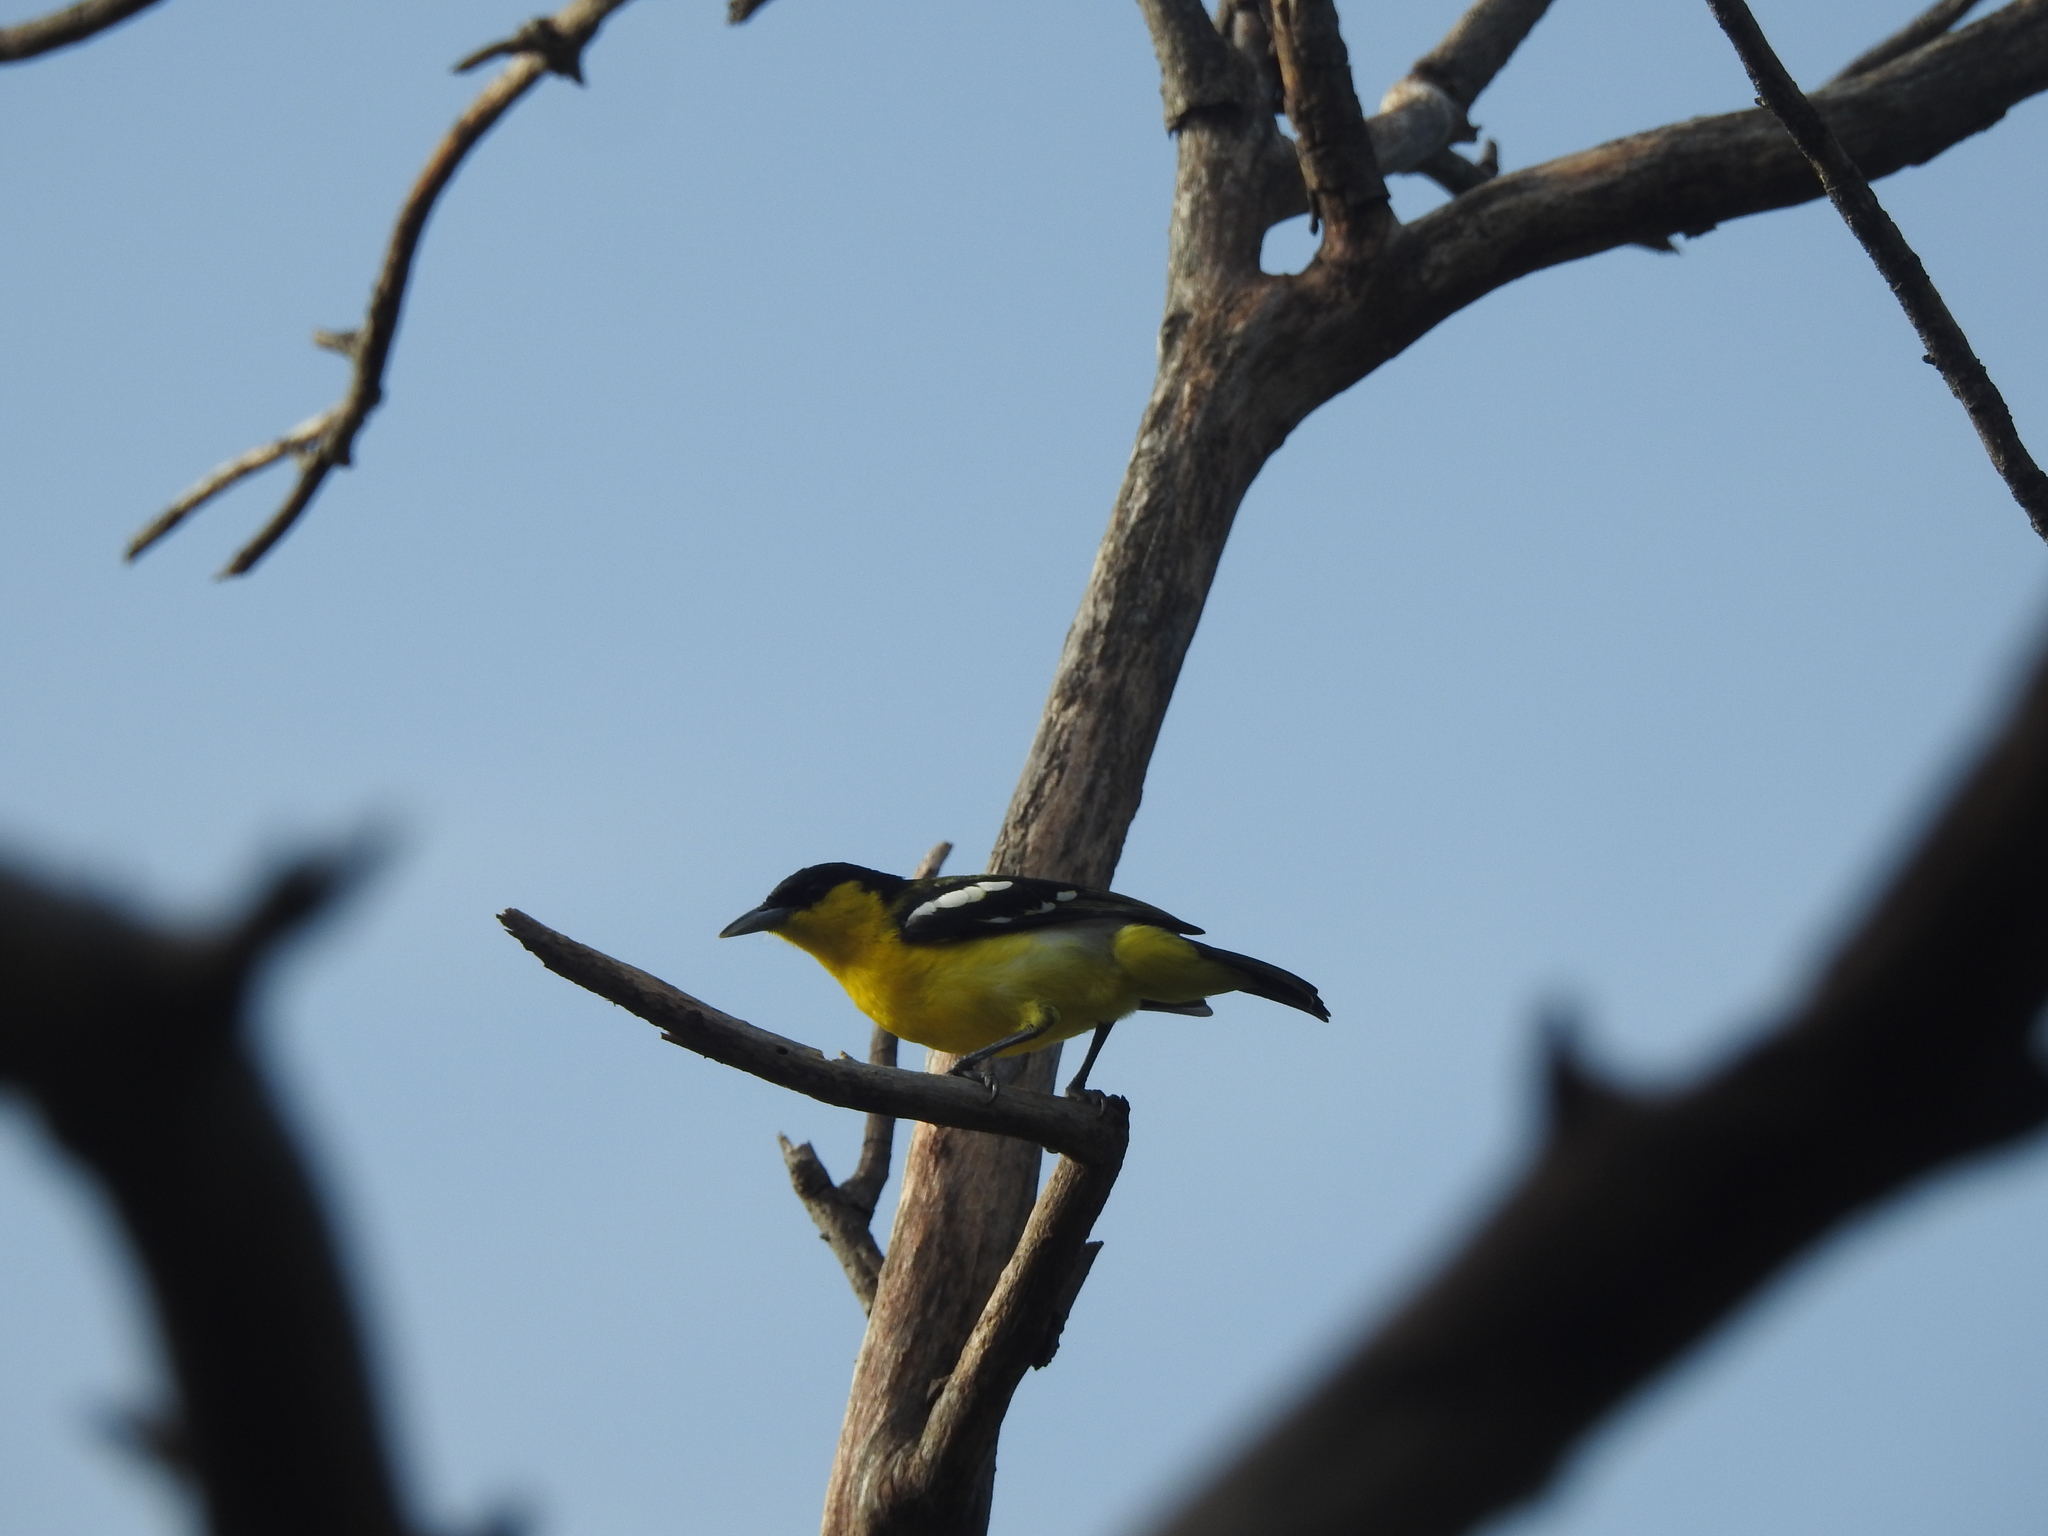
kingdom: Animalia
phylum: Chordata
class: Aves
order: Passeriformes
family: Aegithinidae
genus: Aegithina
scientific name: Aegithina tiphia
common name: Common iora
